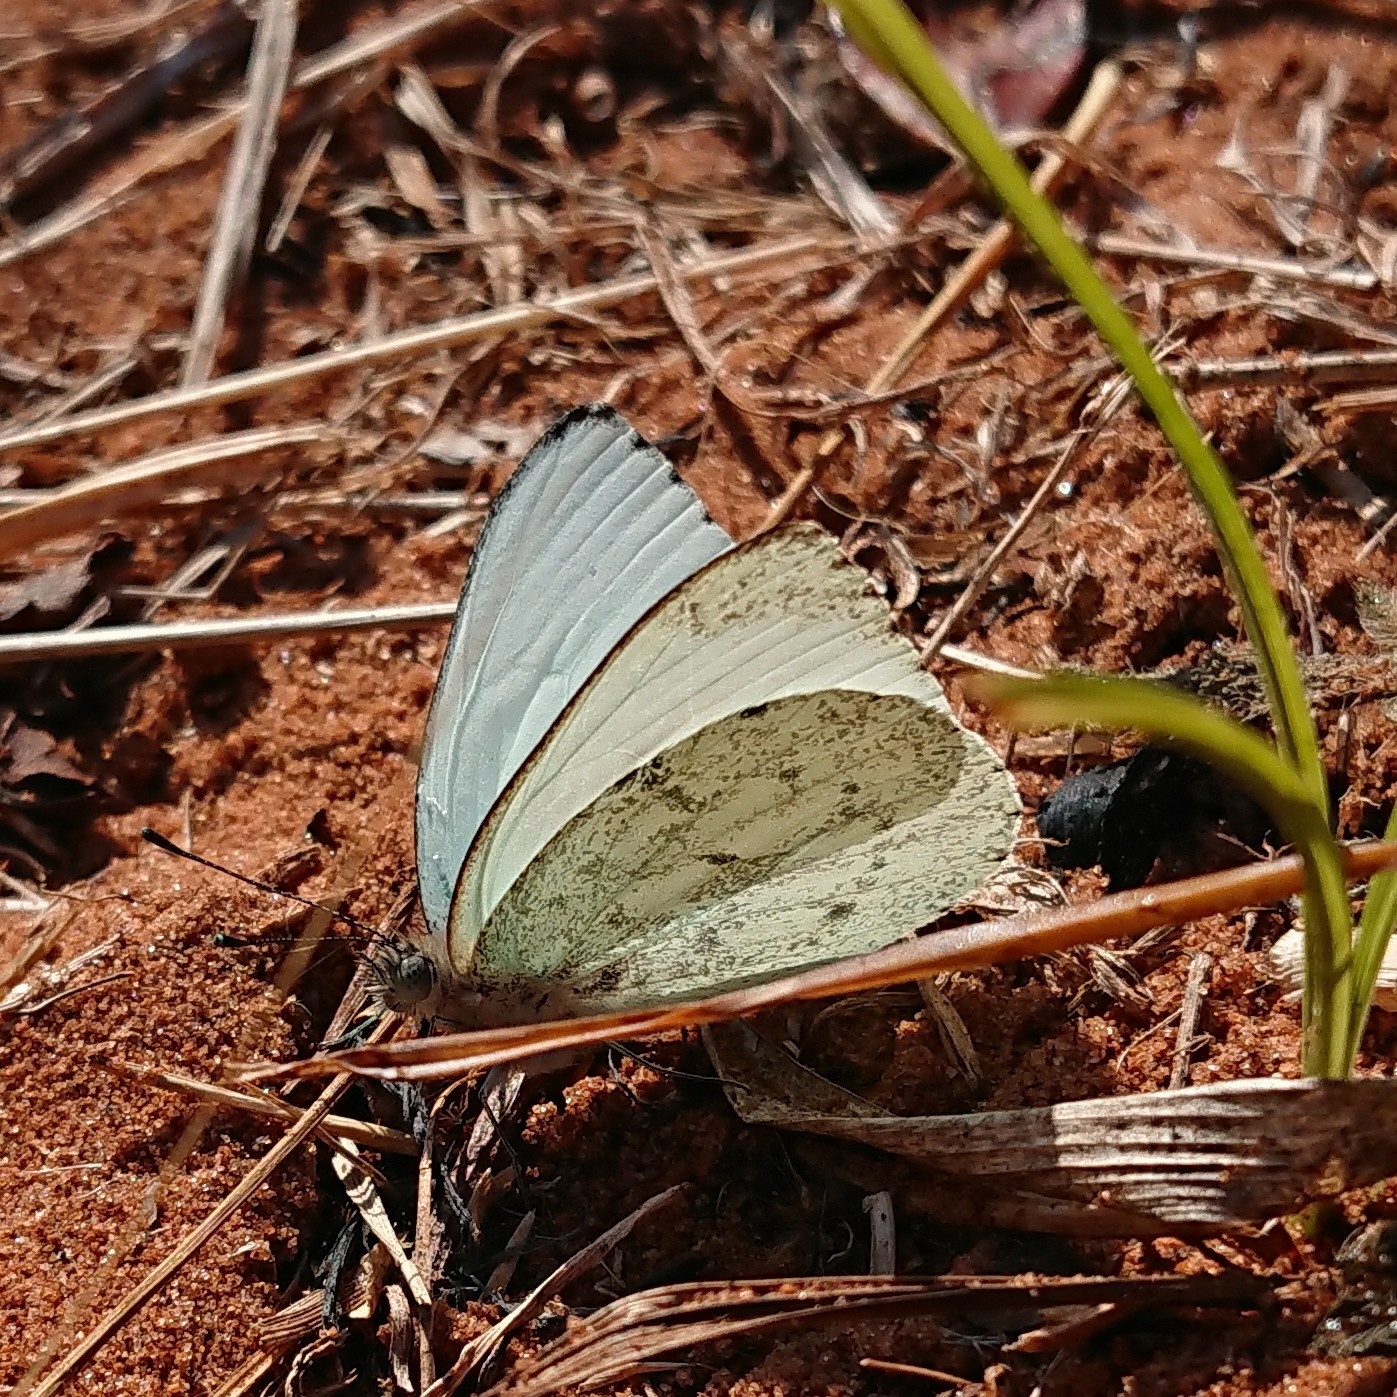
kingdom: Animalia
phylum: Arthropoda
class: Insecta
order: Lepidoptera
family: Pieridae
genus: Dixeia
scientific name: Dixeia charina
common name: African small white
